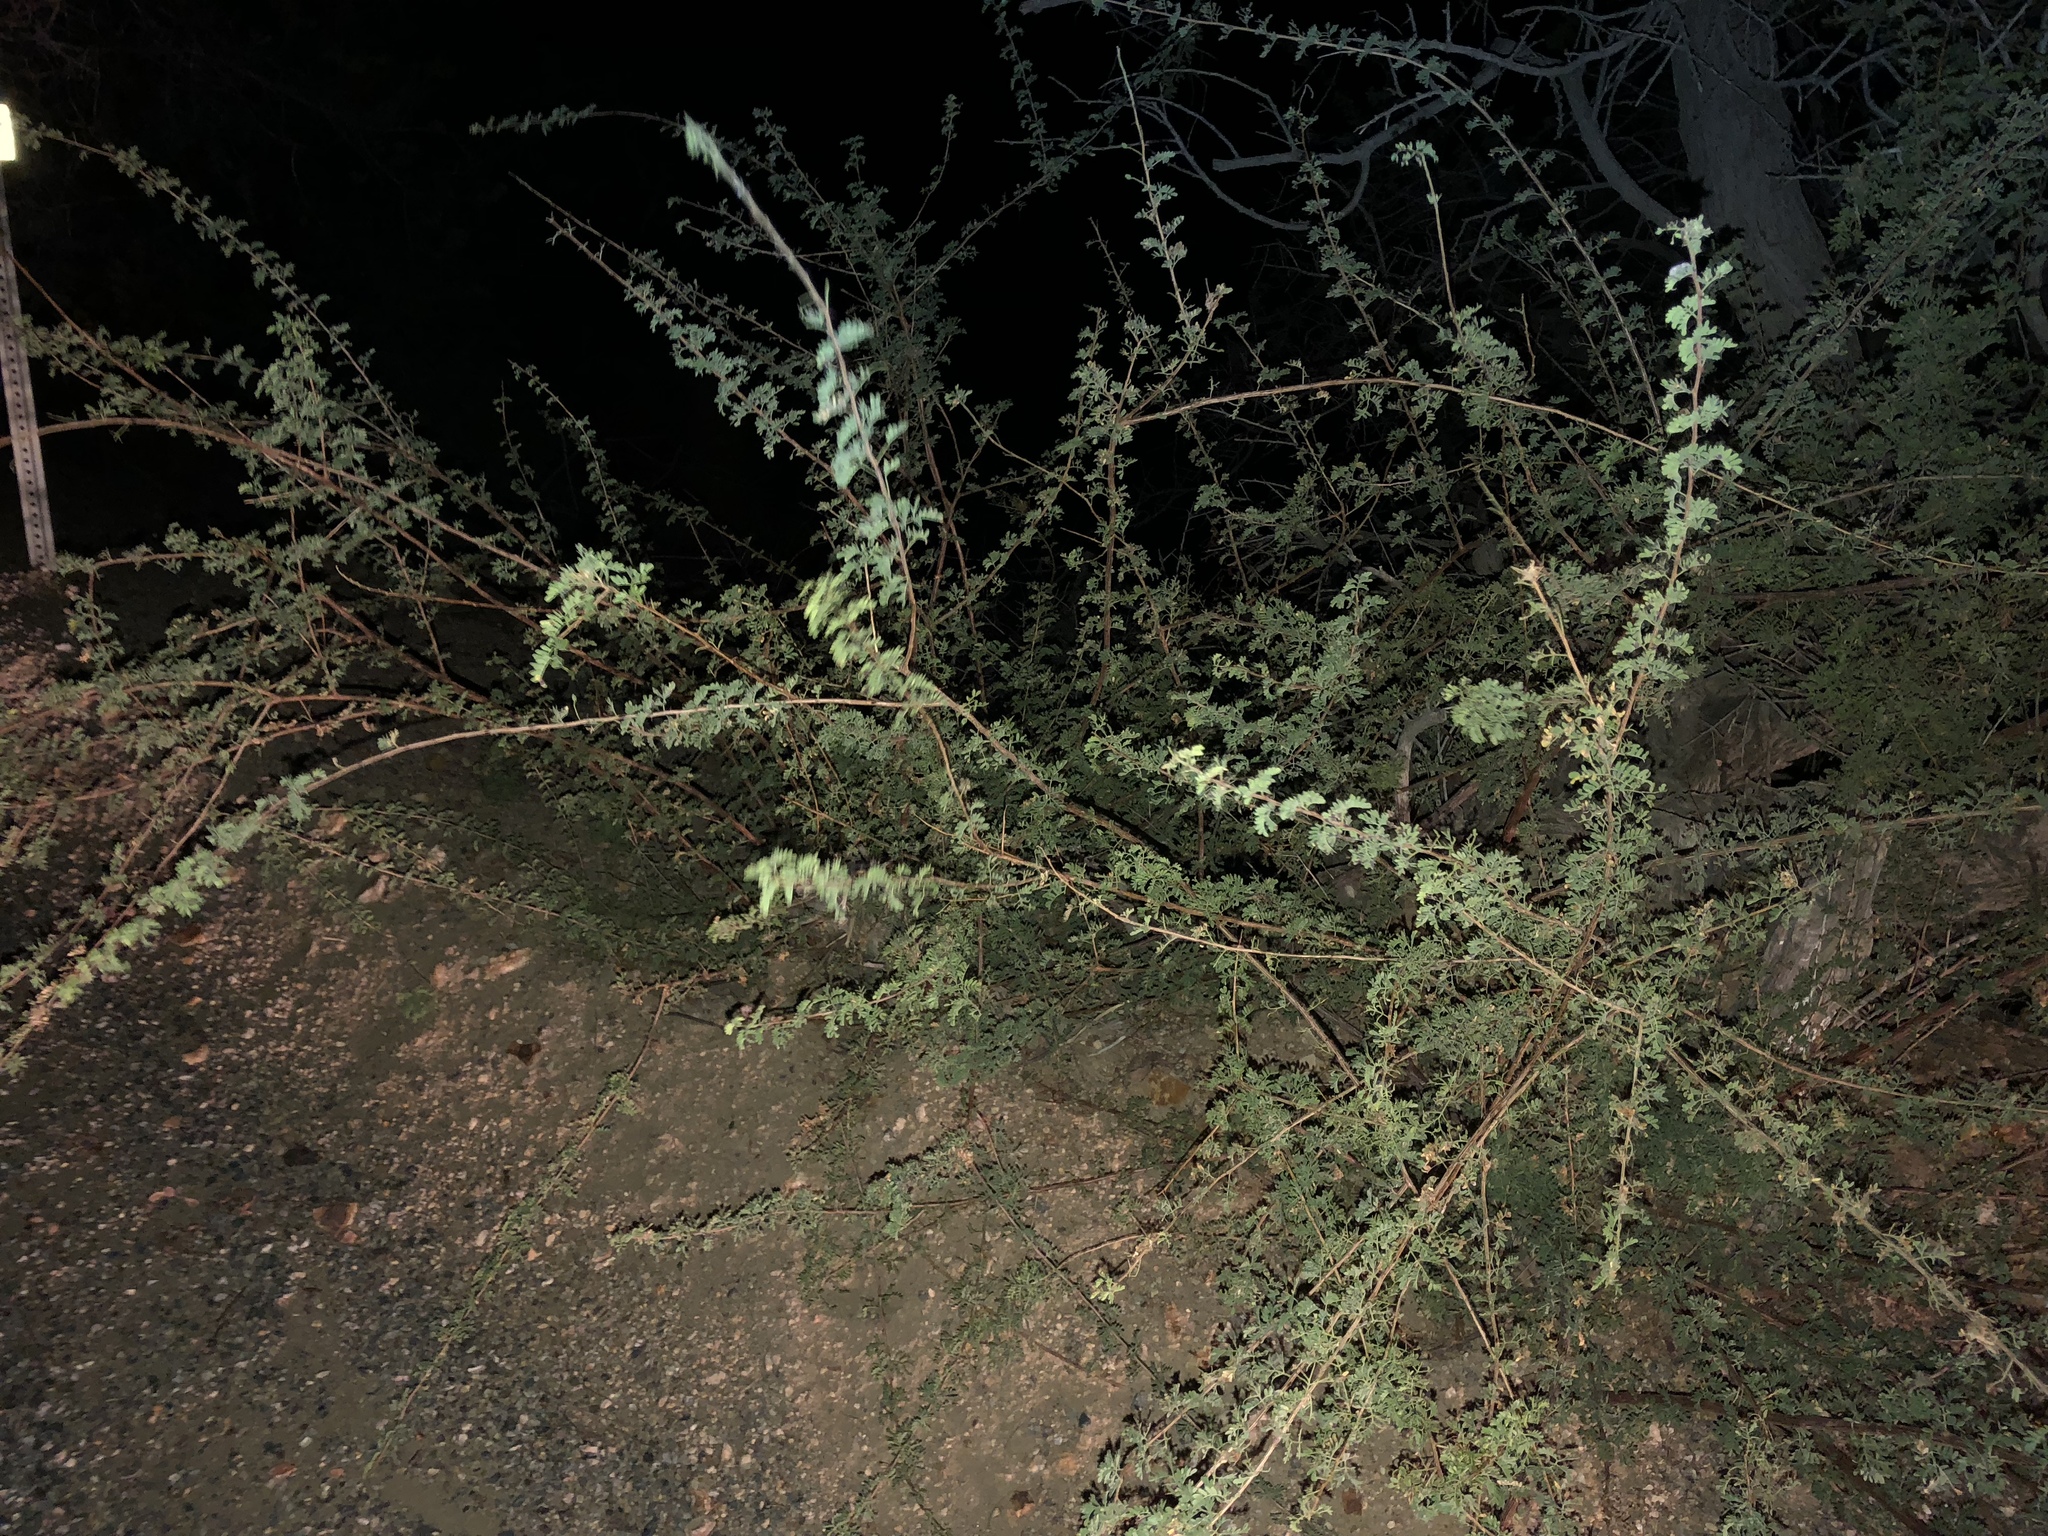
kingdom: Plantae
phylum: Tracheophyta
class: Magnoliopsida
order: Fabales
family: Fabaceae
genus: Senegalia
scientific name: Senegalia greggii
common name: Texas-mimosa
